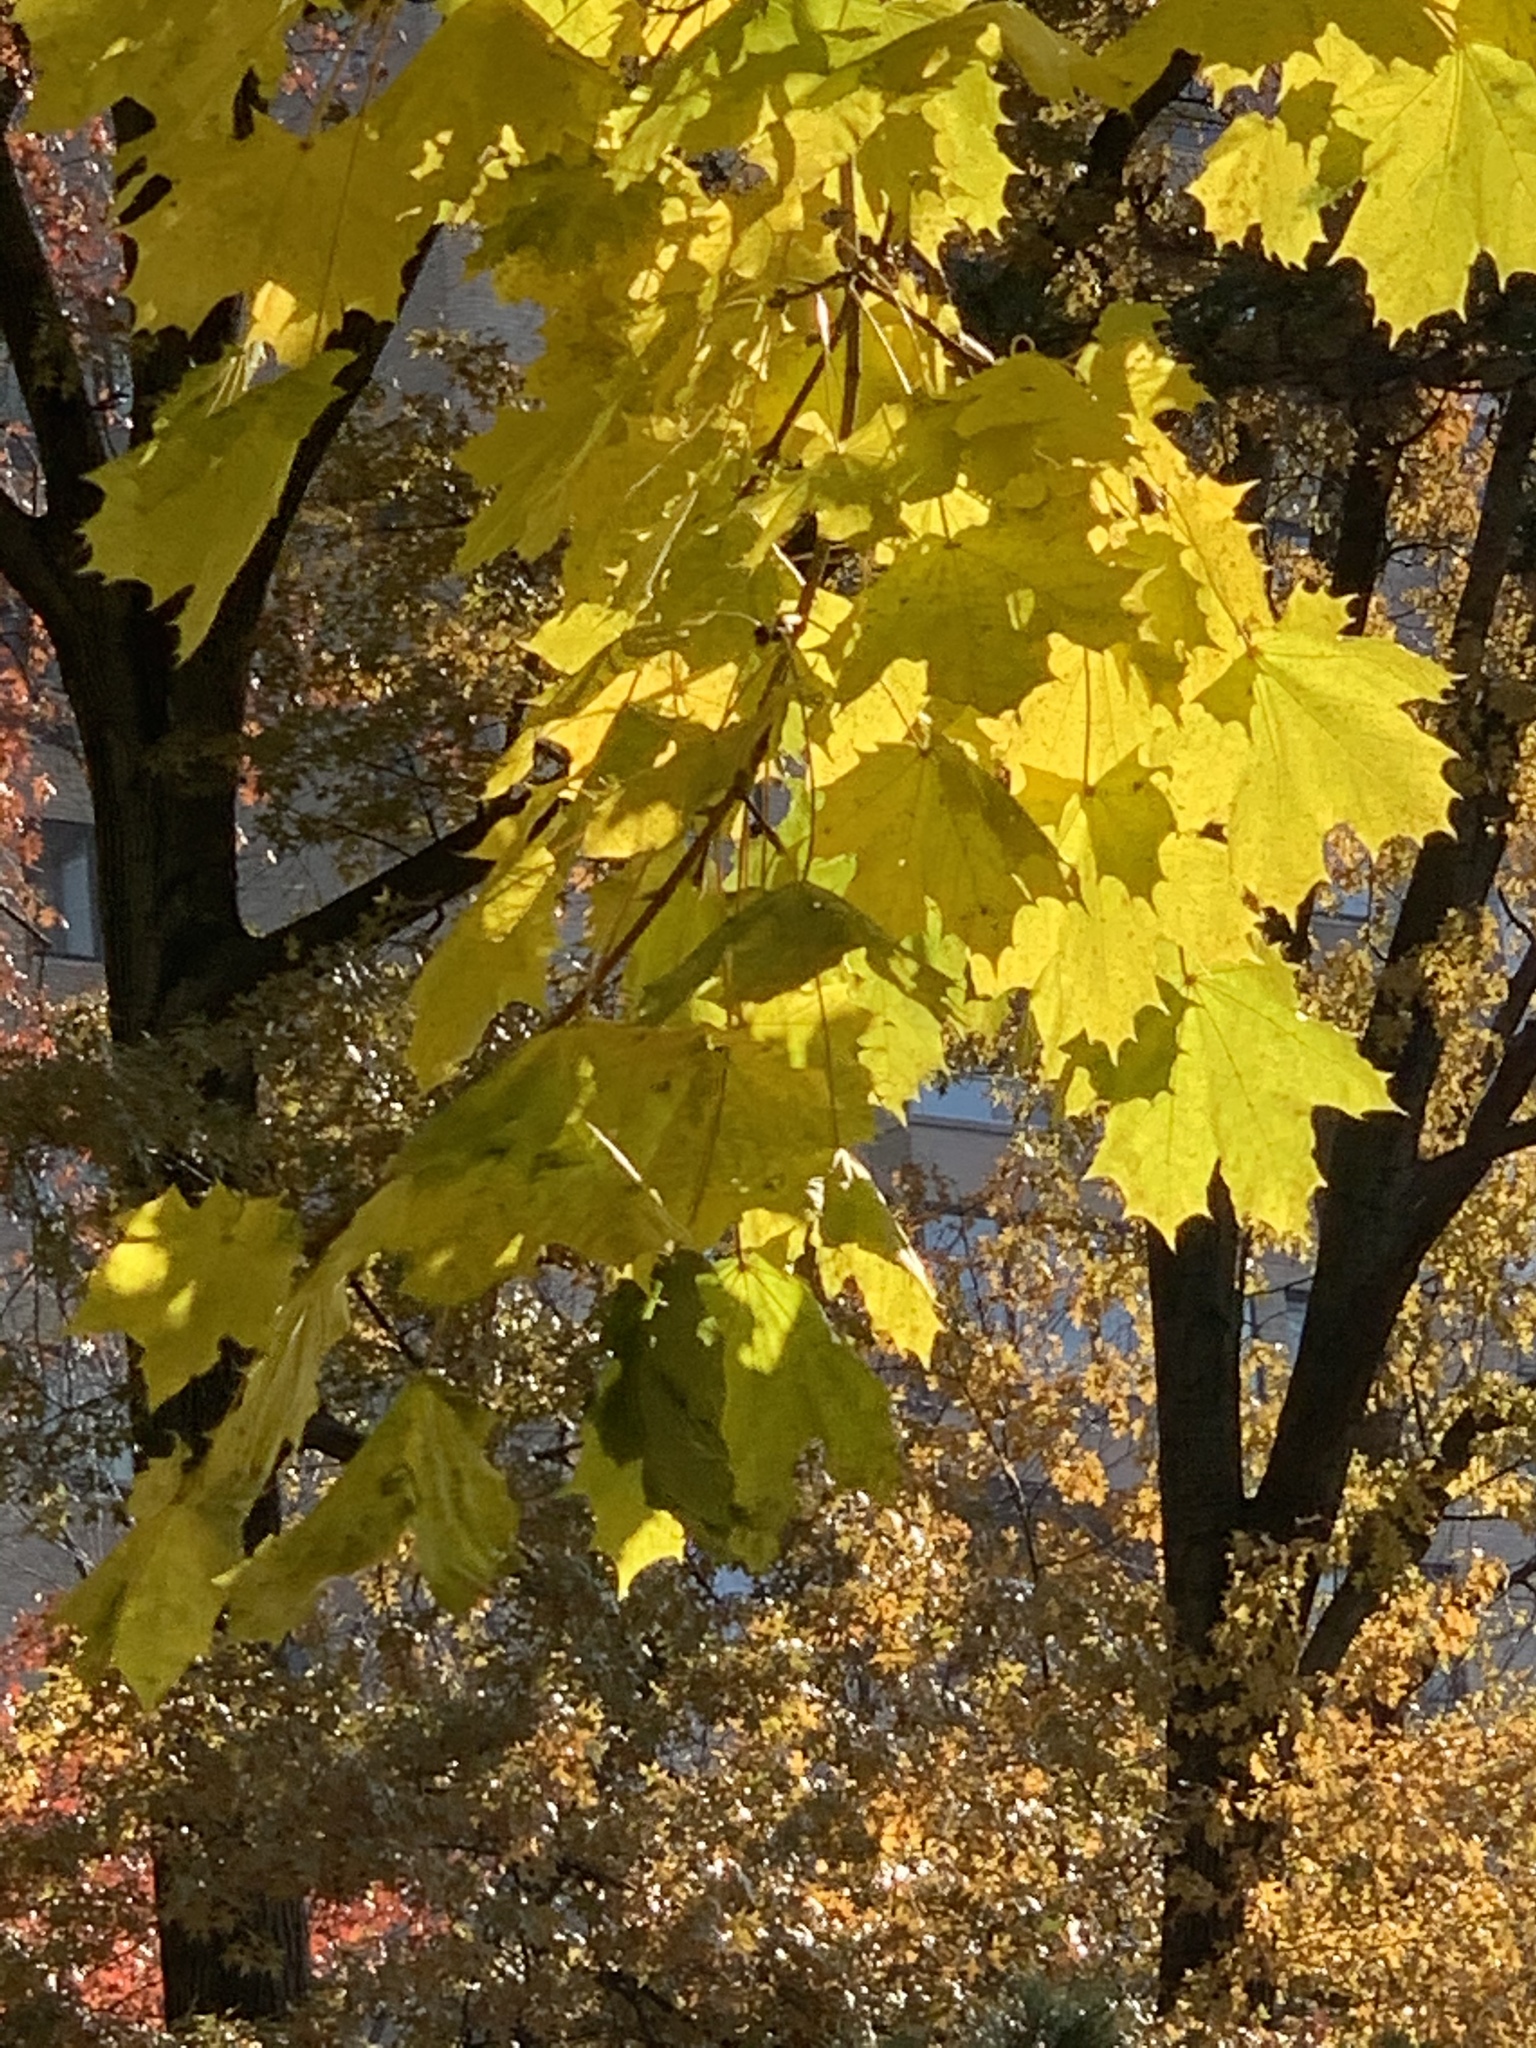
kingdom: Plantae
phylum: Tracheophyta
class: Magnoliopsida
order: Sapindales
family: Sapindaceae
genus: Acer
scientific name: Acer platanoides
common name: Norway maple
